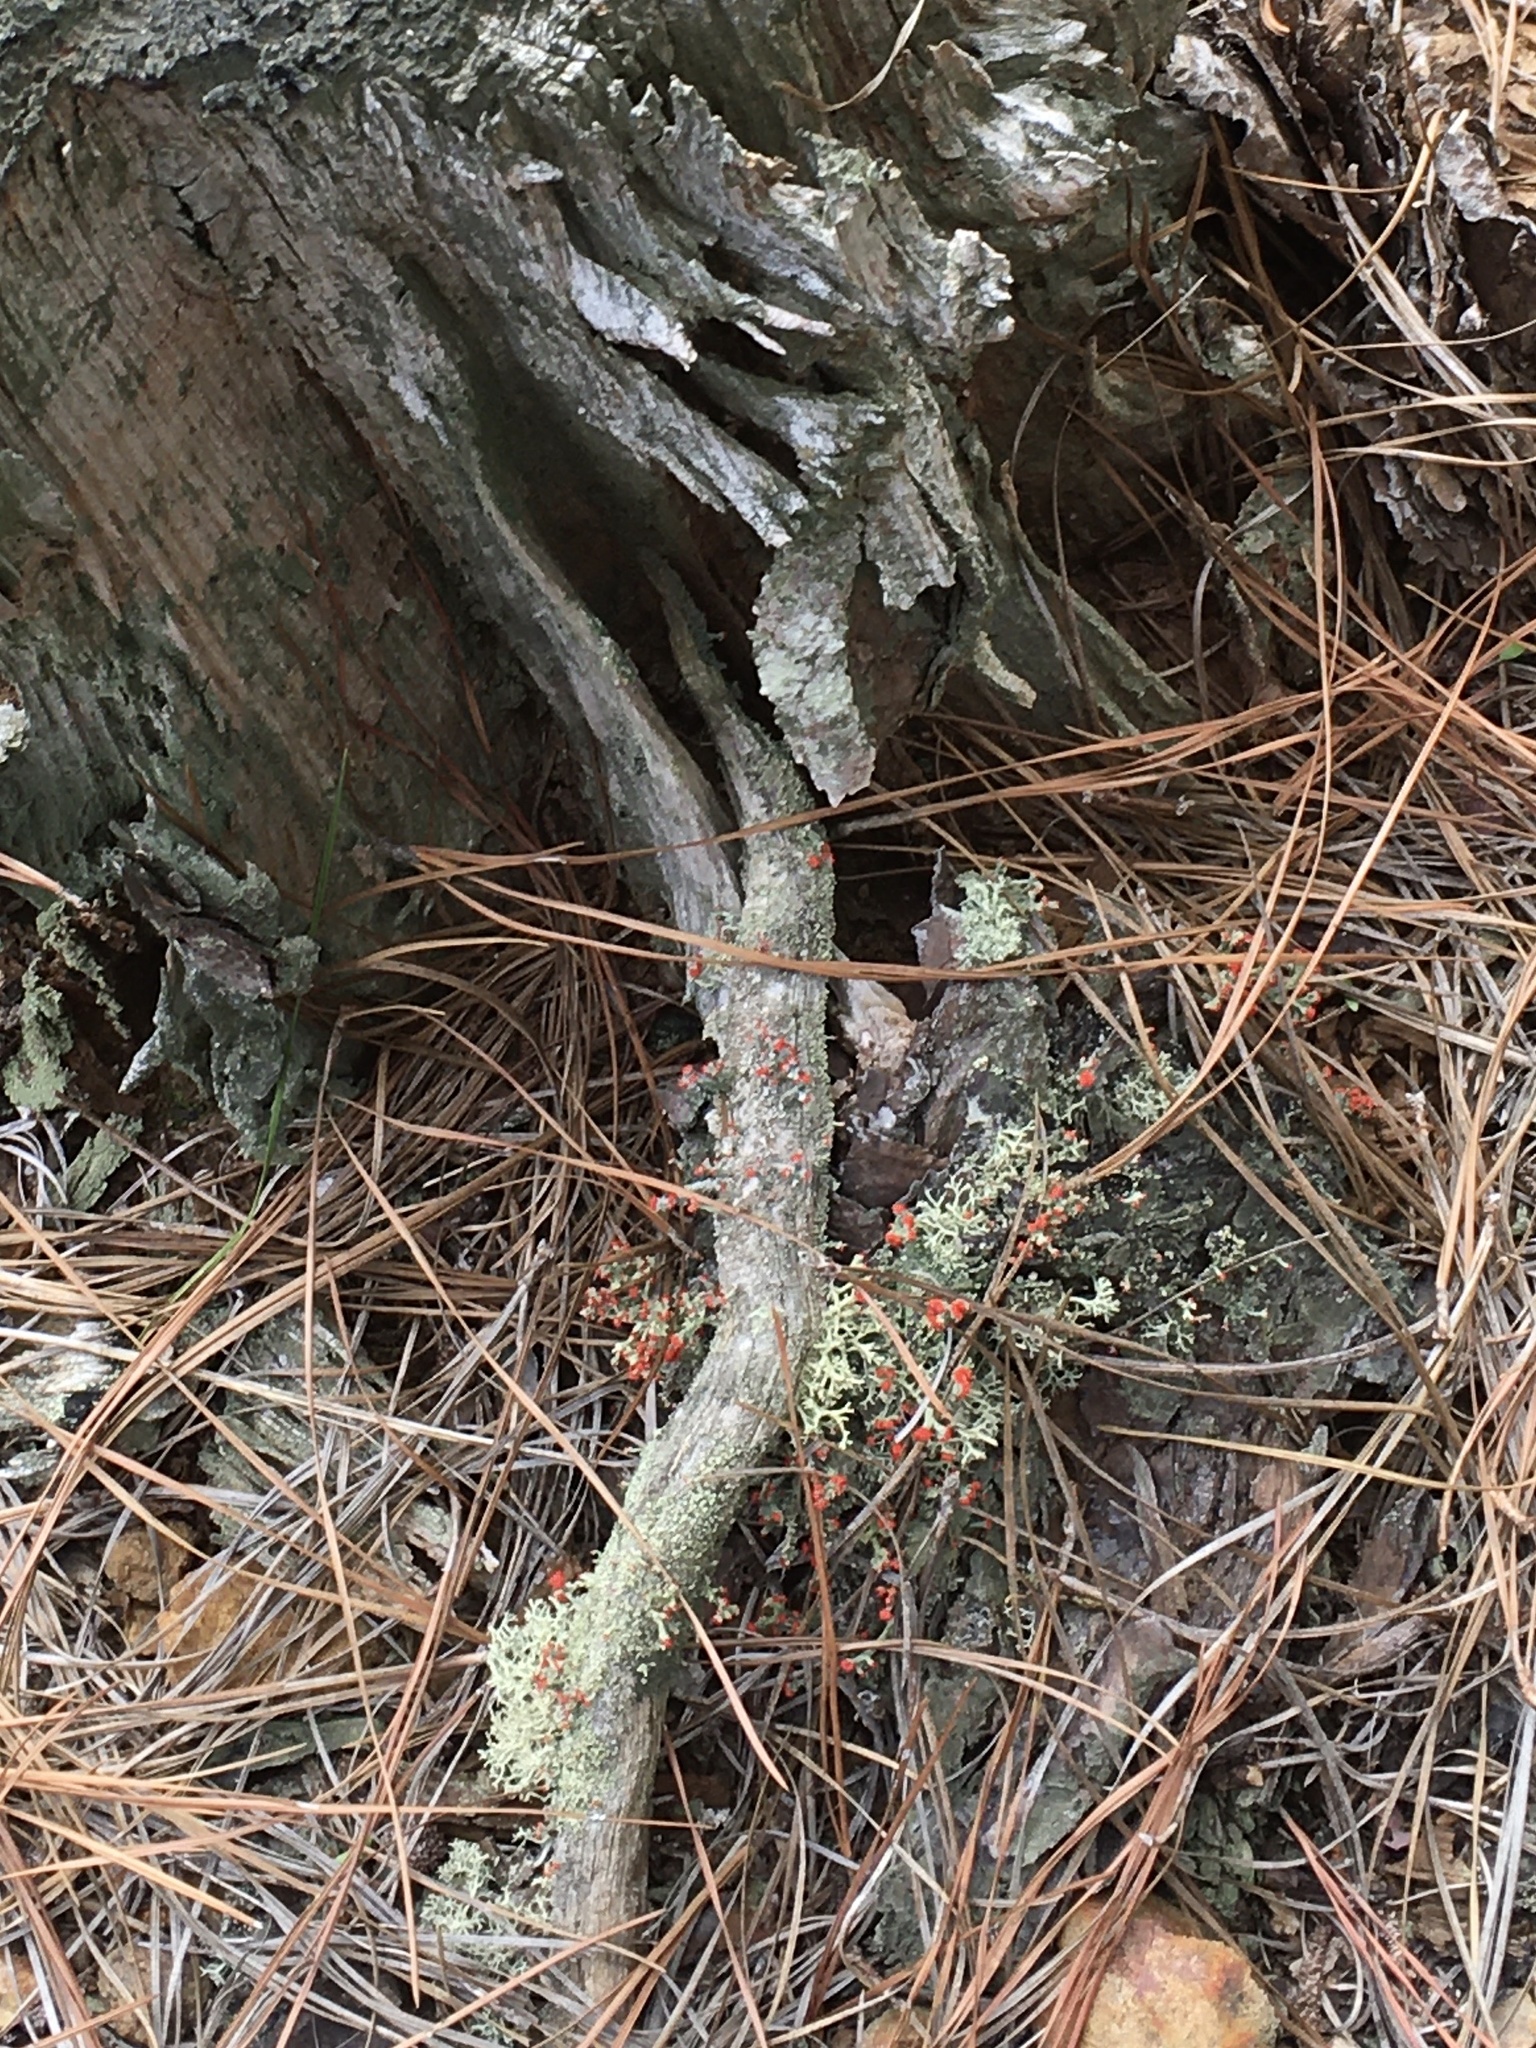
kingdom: Fungi
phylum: Ascomycota
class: Lecanoromycetes
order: Lecanorales
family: Cladoniaceae
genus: Cladonia
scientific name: Cladonia cristatella
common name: British soldier lichen
